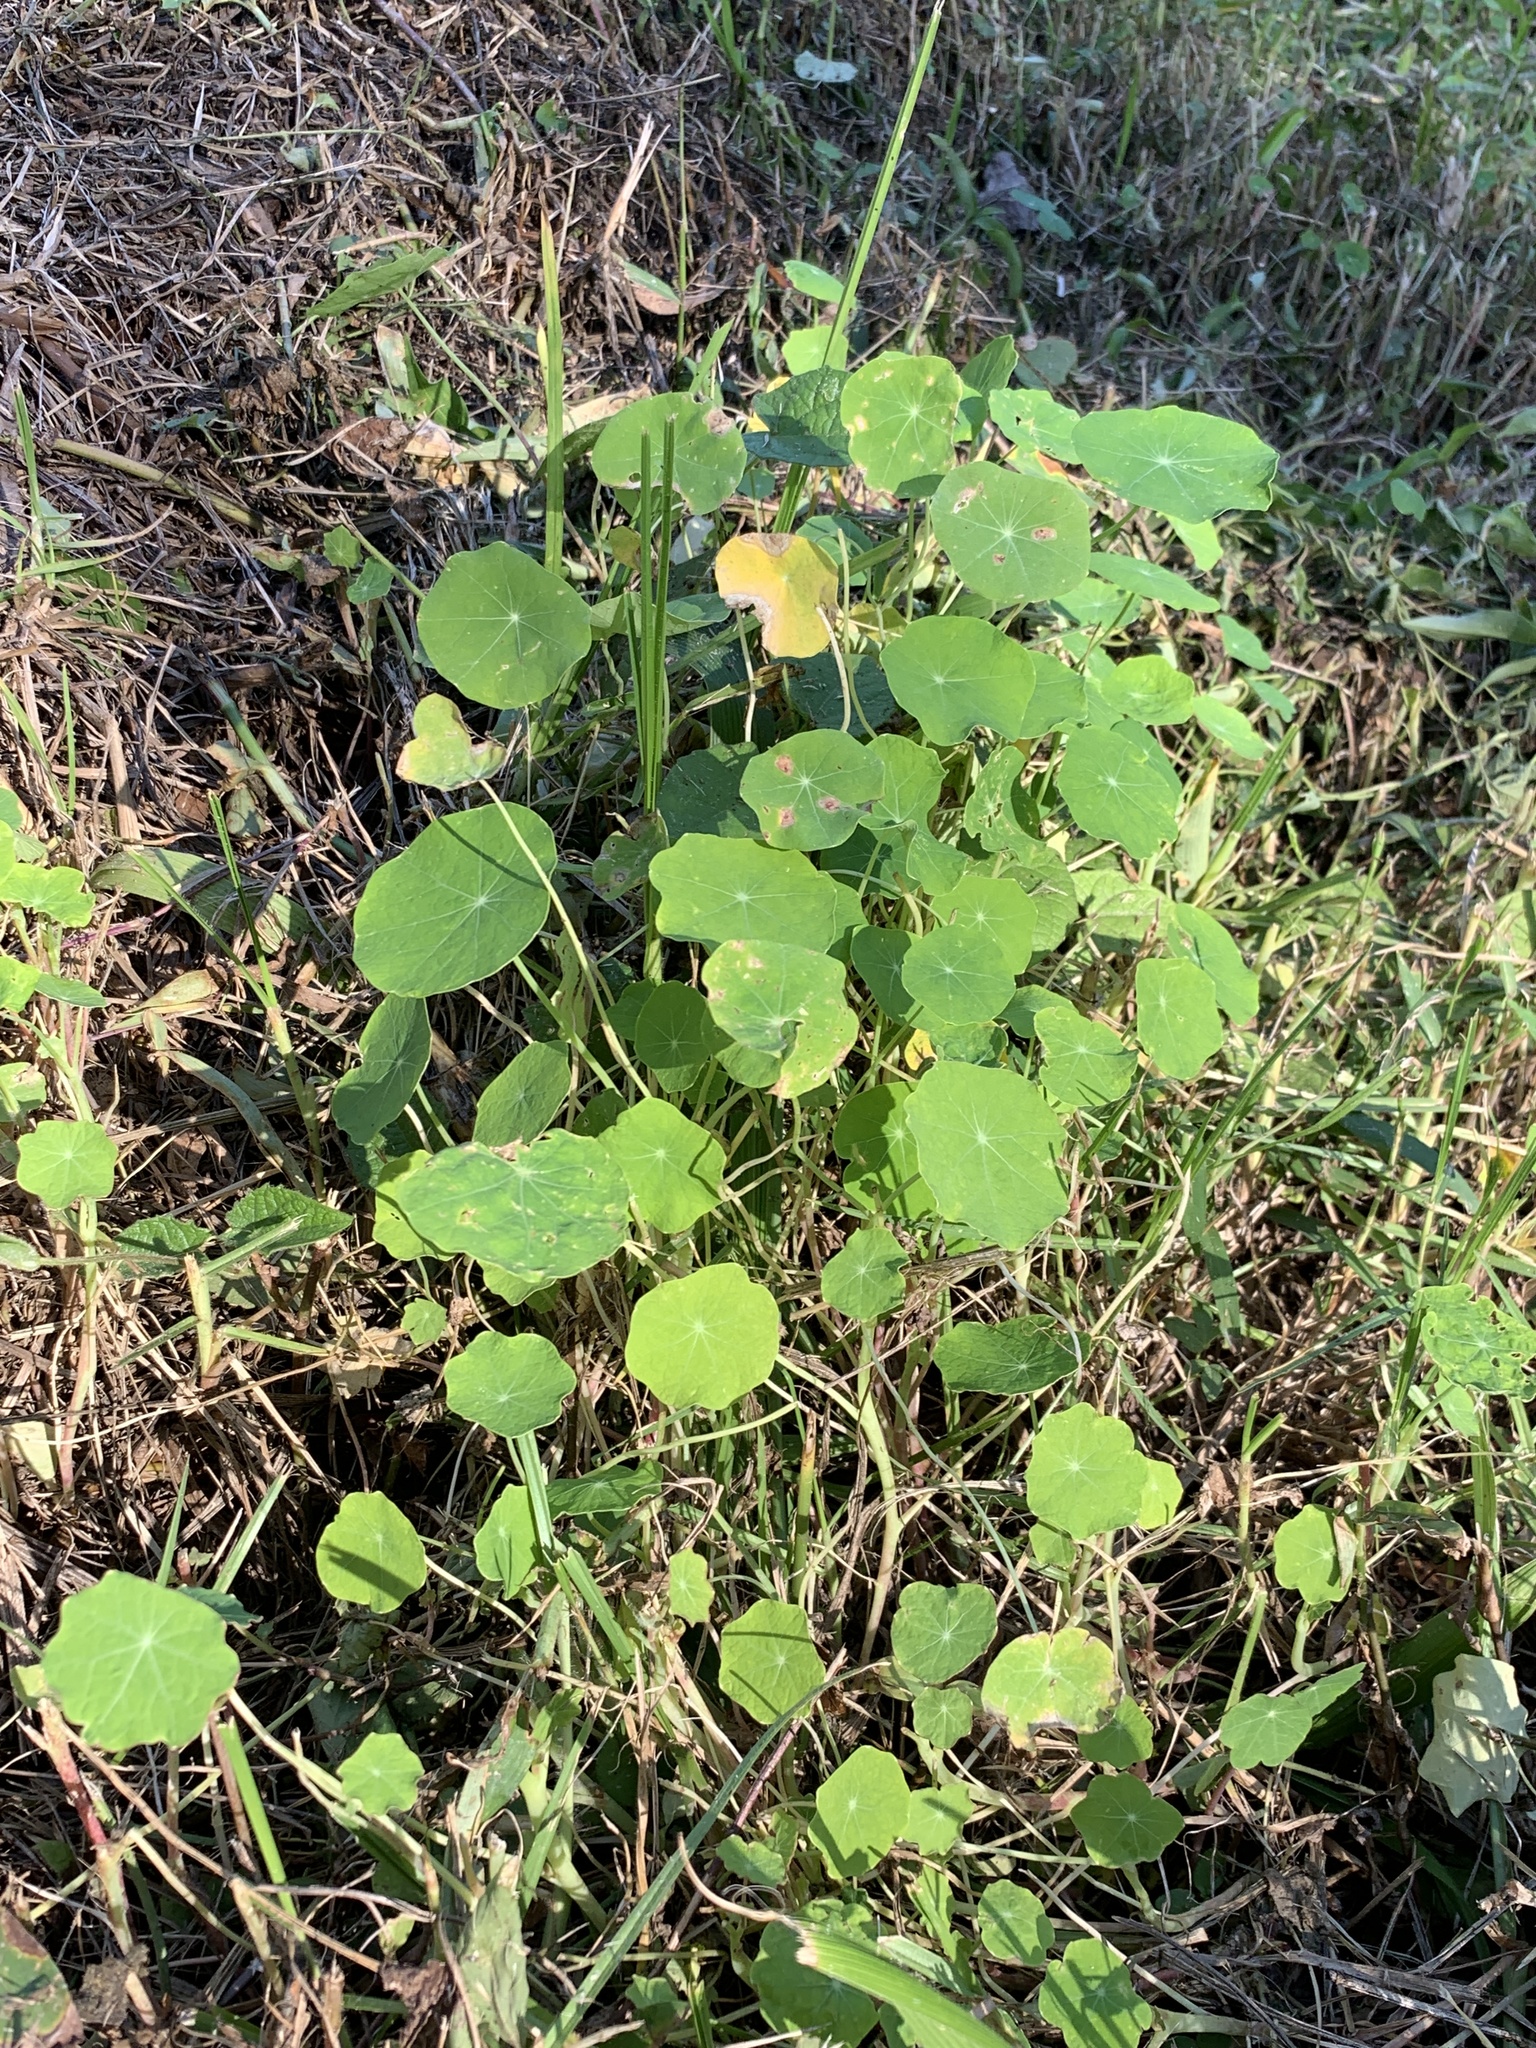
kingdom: Plantae
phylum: Tracheophyta
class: Magnoliopsida
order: Brassicales
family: Tropaeolaceae
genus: Tropaeolum
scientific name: Tropaeolum majus
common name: Nasturtium
